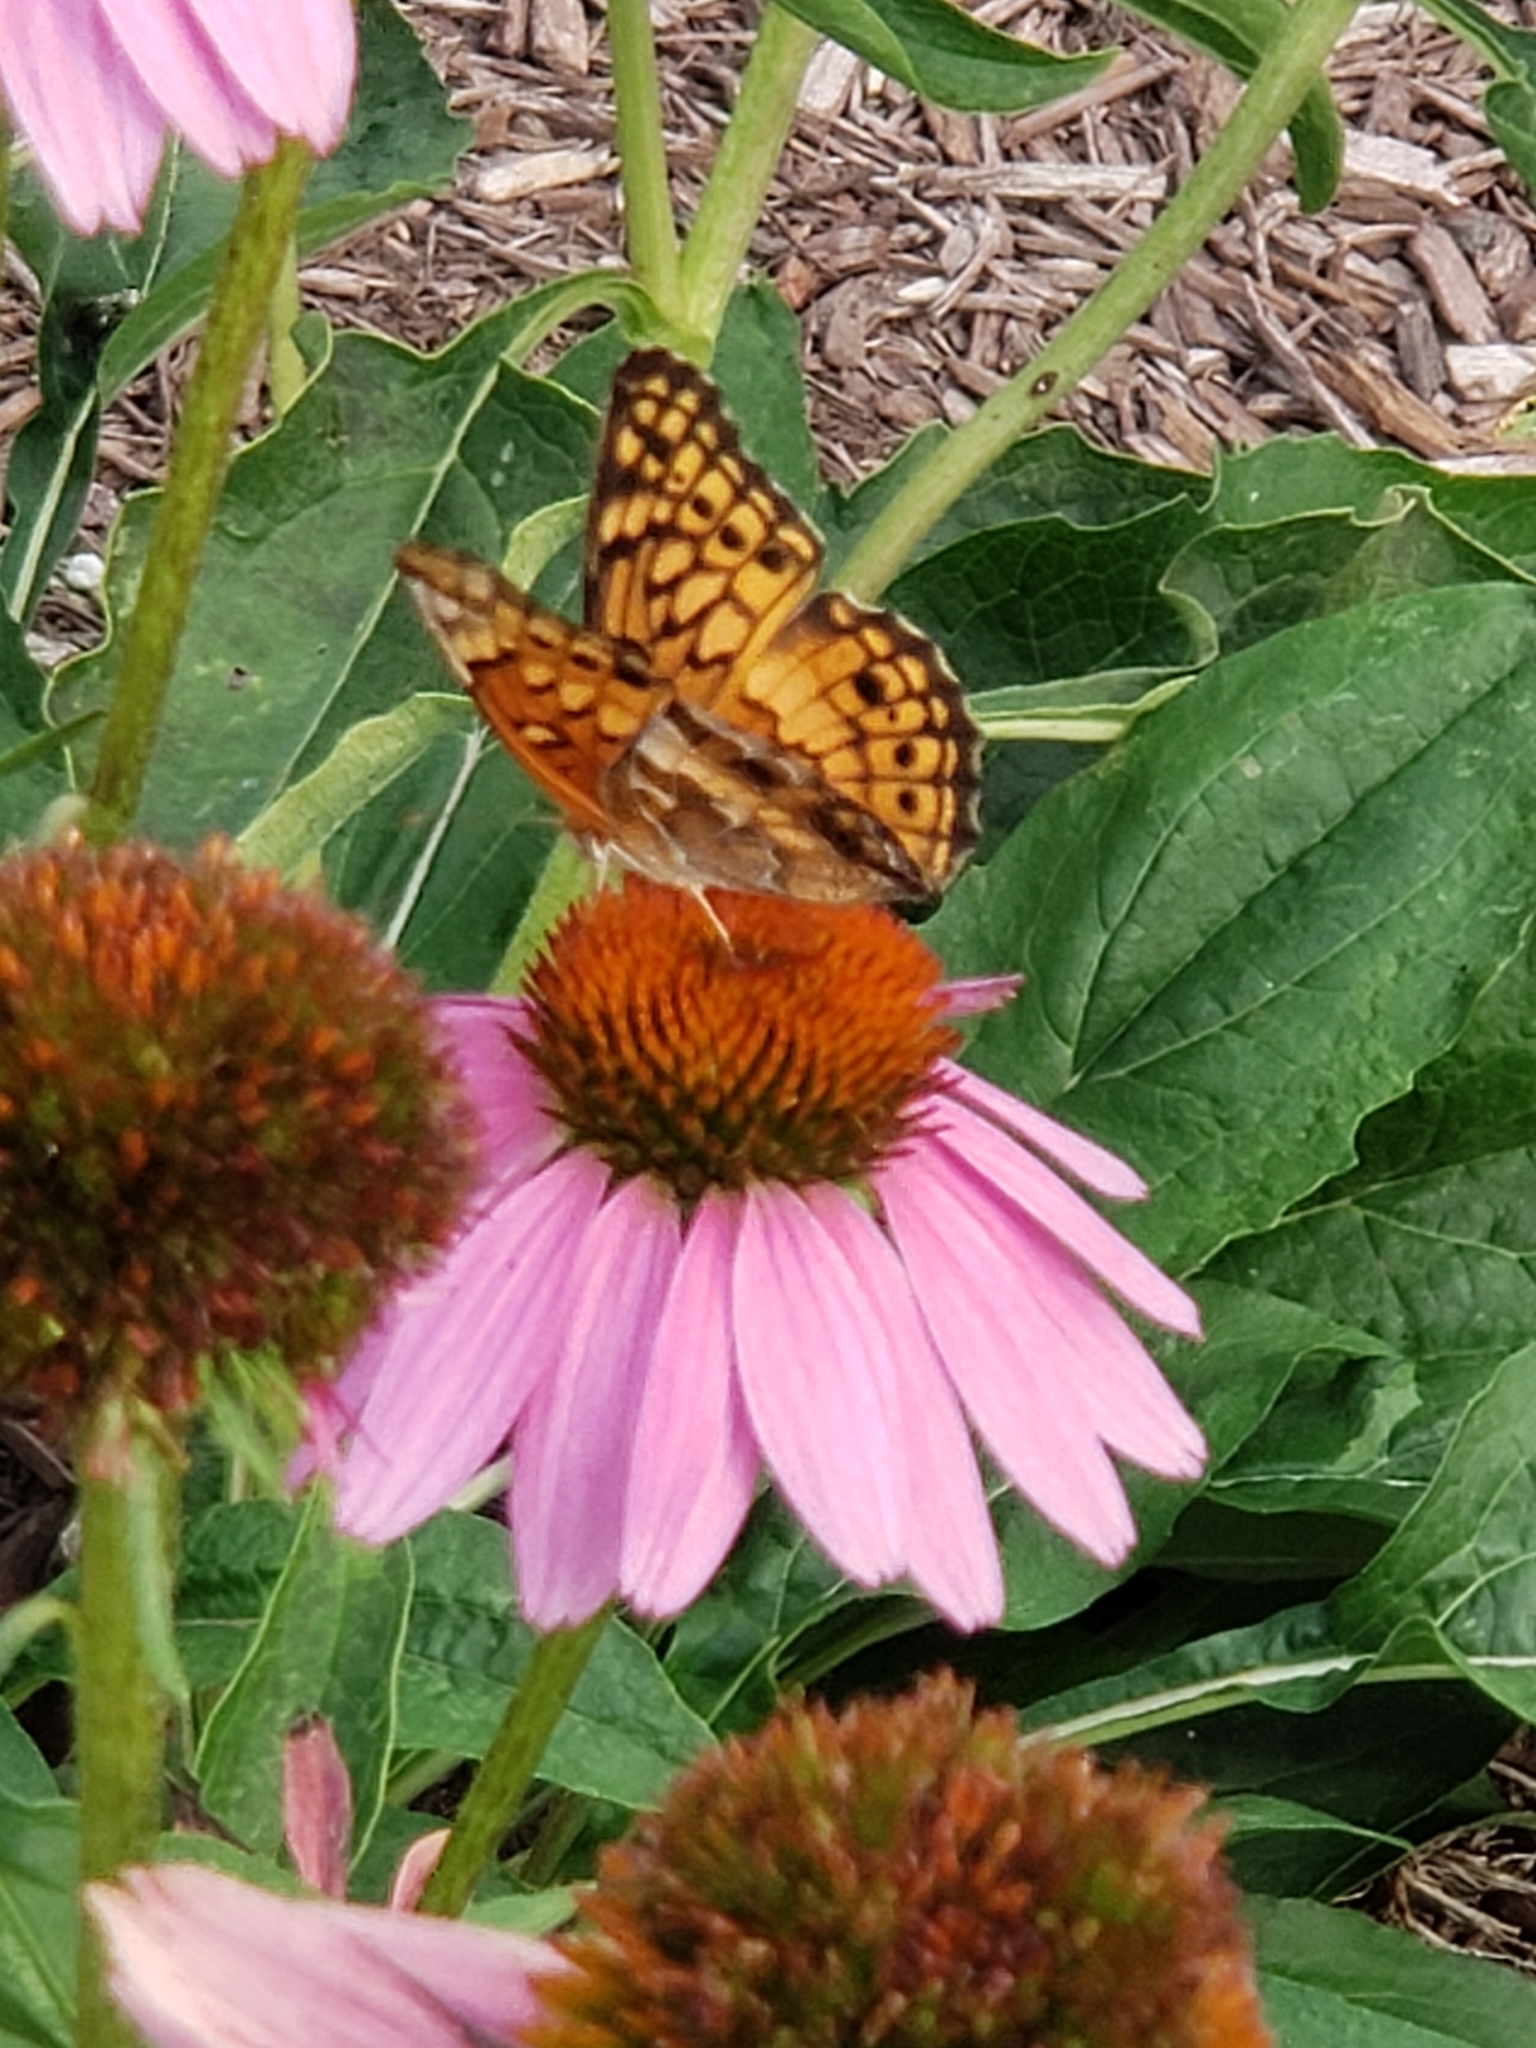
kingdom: Animalia
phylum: Arthropoda
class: Insecta
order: Lepidoptera
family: Nymphalidae
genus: Euptoieta
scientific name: Euptoieta claudia
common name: Variegated fritillary
